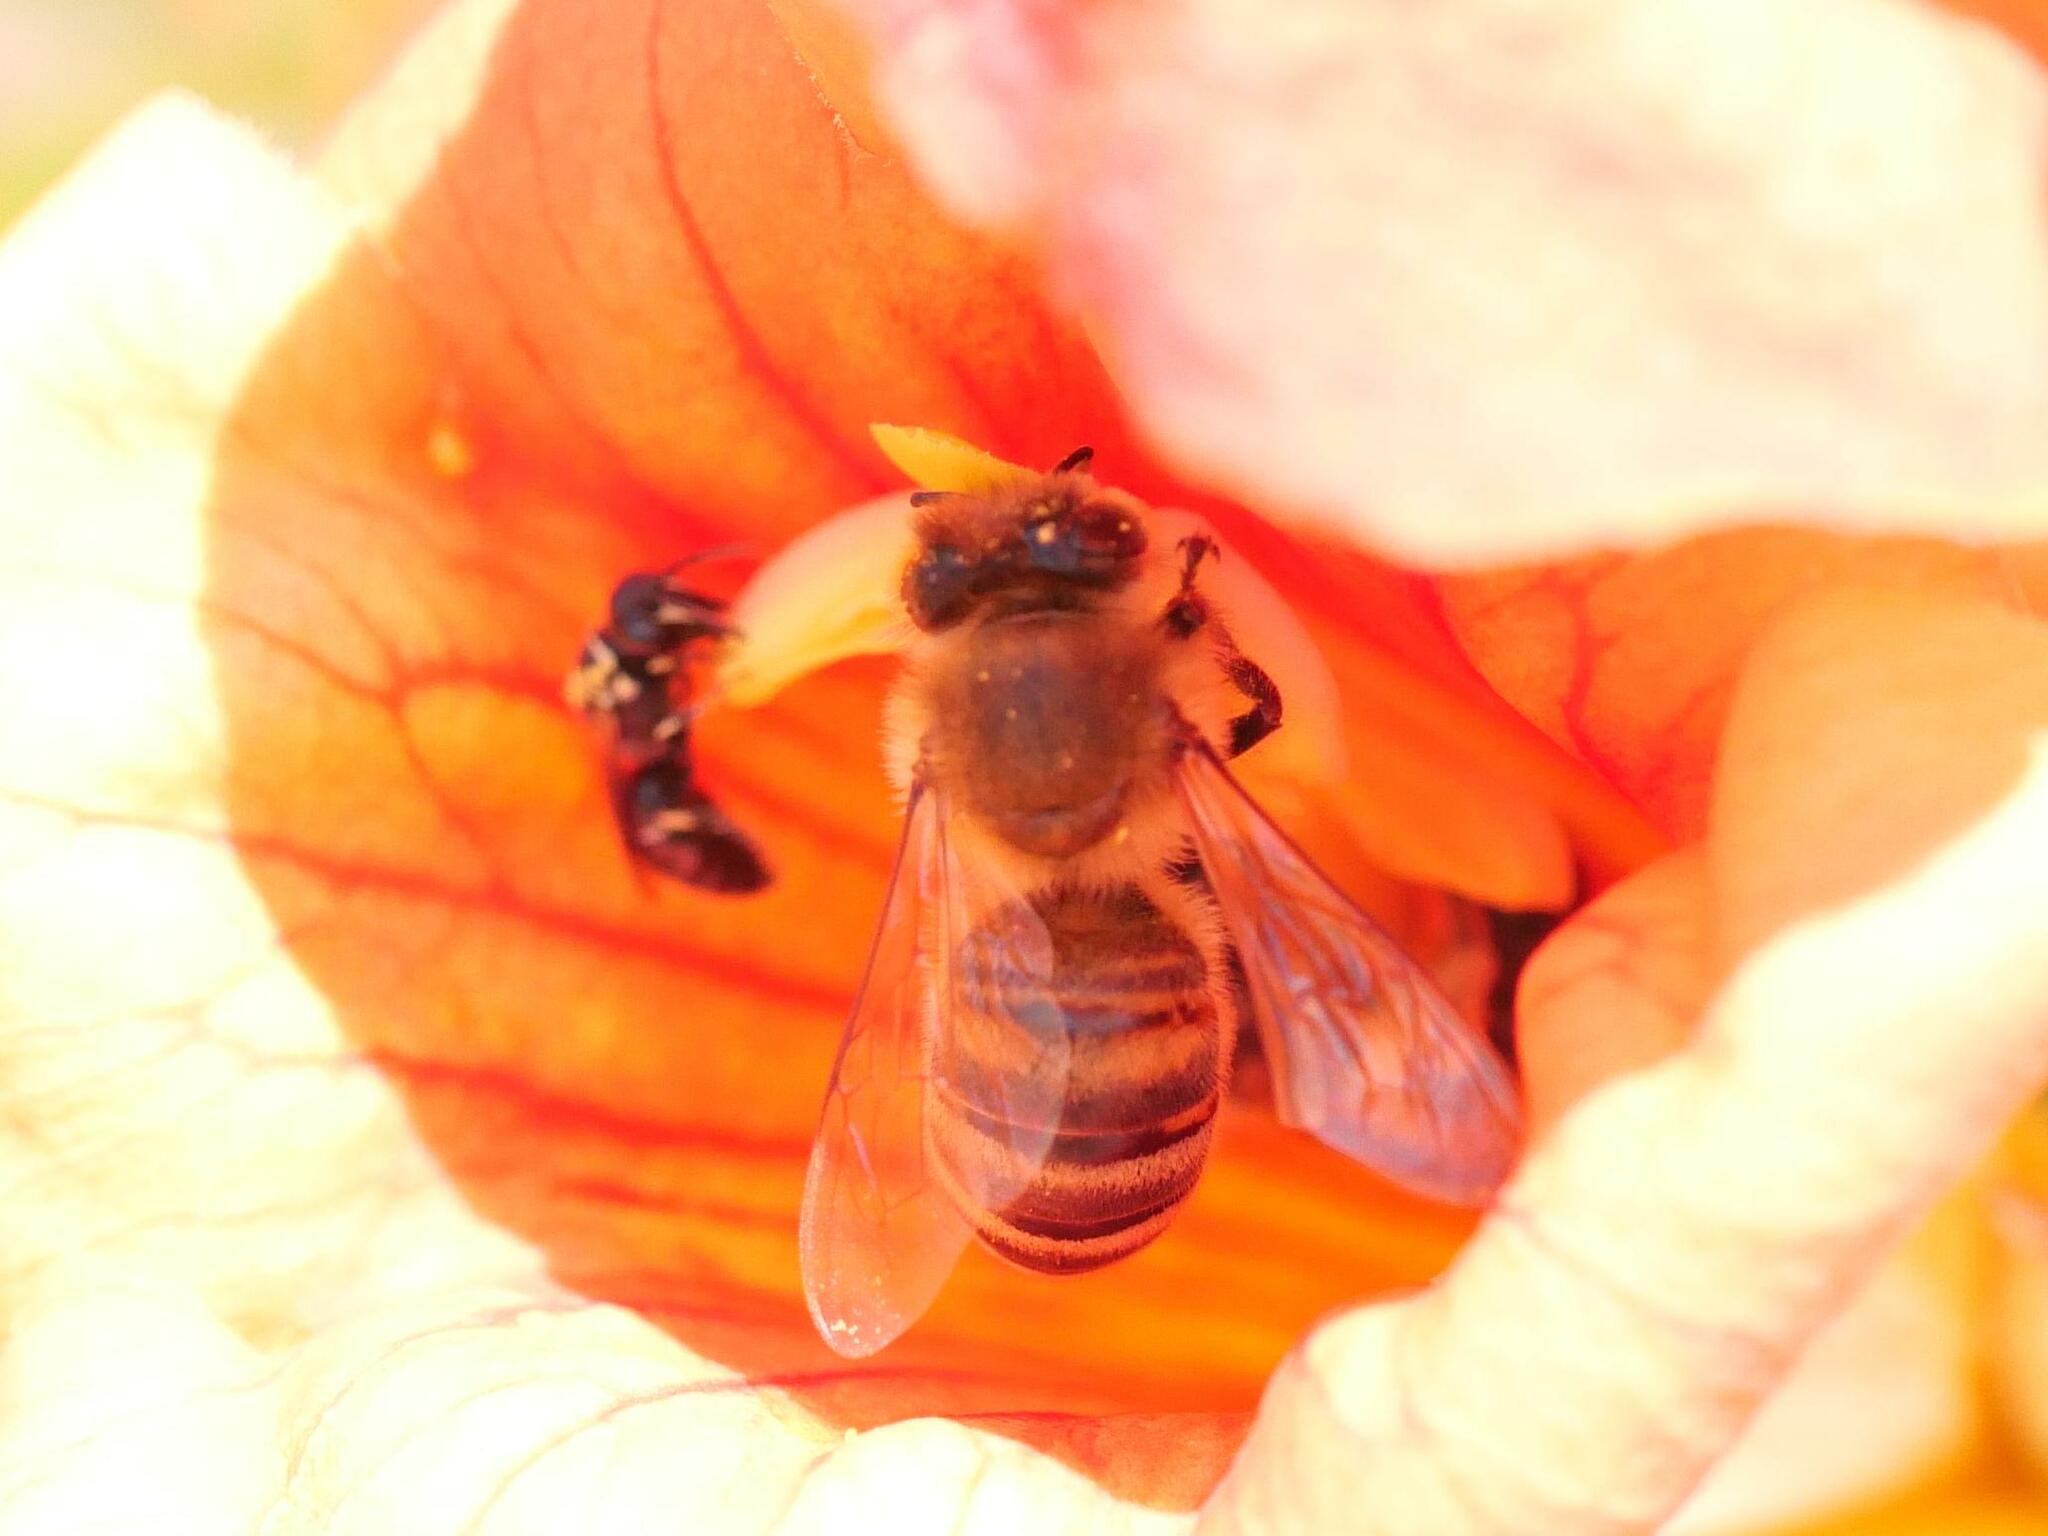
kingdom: Animalia
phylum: Arthropoda
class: Insecta
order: Hymenoptera
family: Apidae
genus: Apis
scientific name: Apis mellifera
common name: Honey bee
